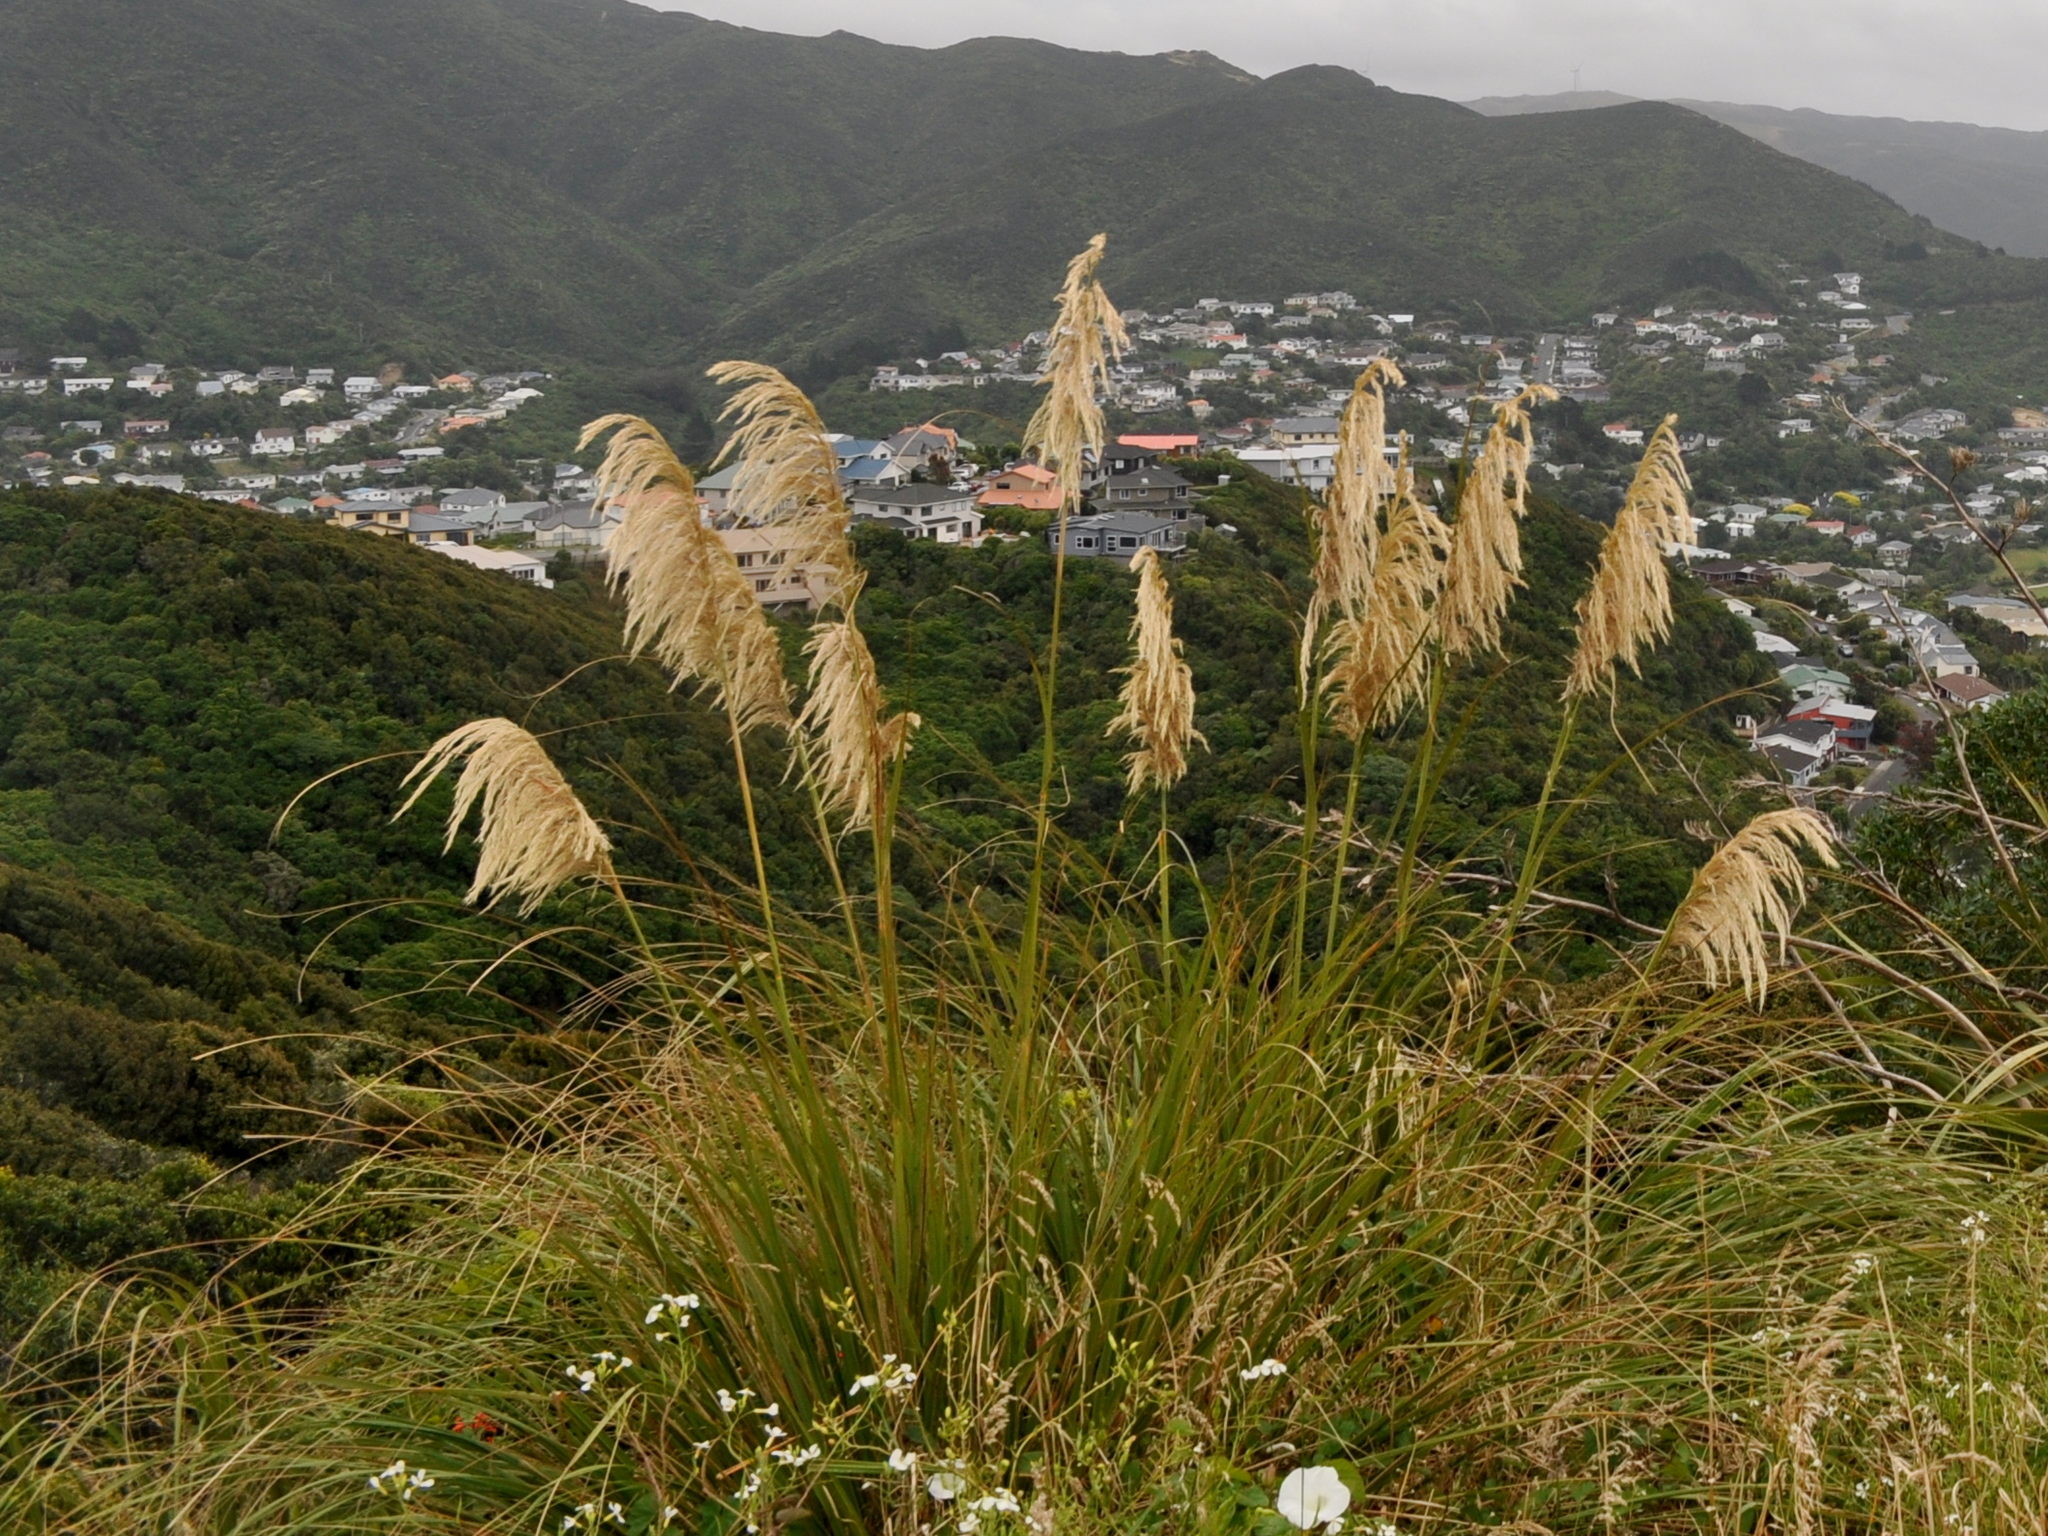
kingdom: Plantae
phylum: Tracheophyta
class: Liliopsida
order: Poales
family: Poaceae
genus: Austroderia
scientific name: Austroderia fulvida
